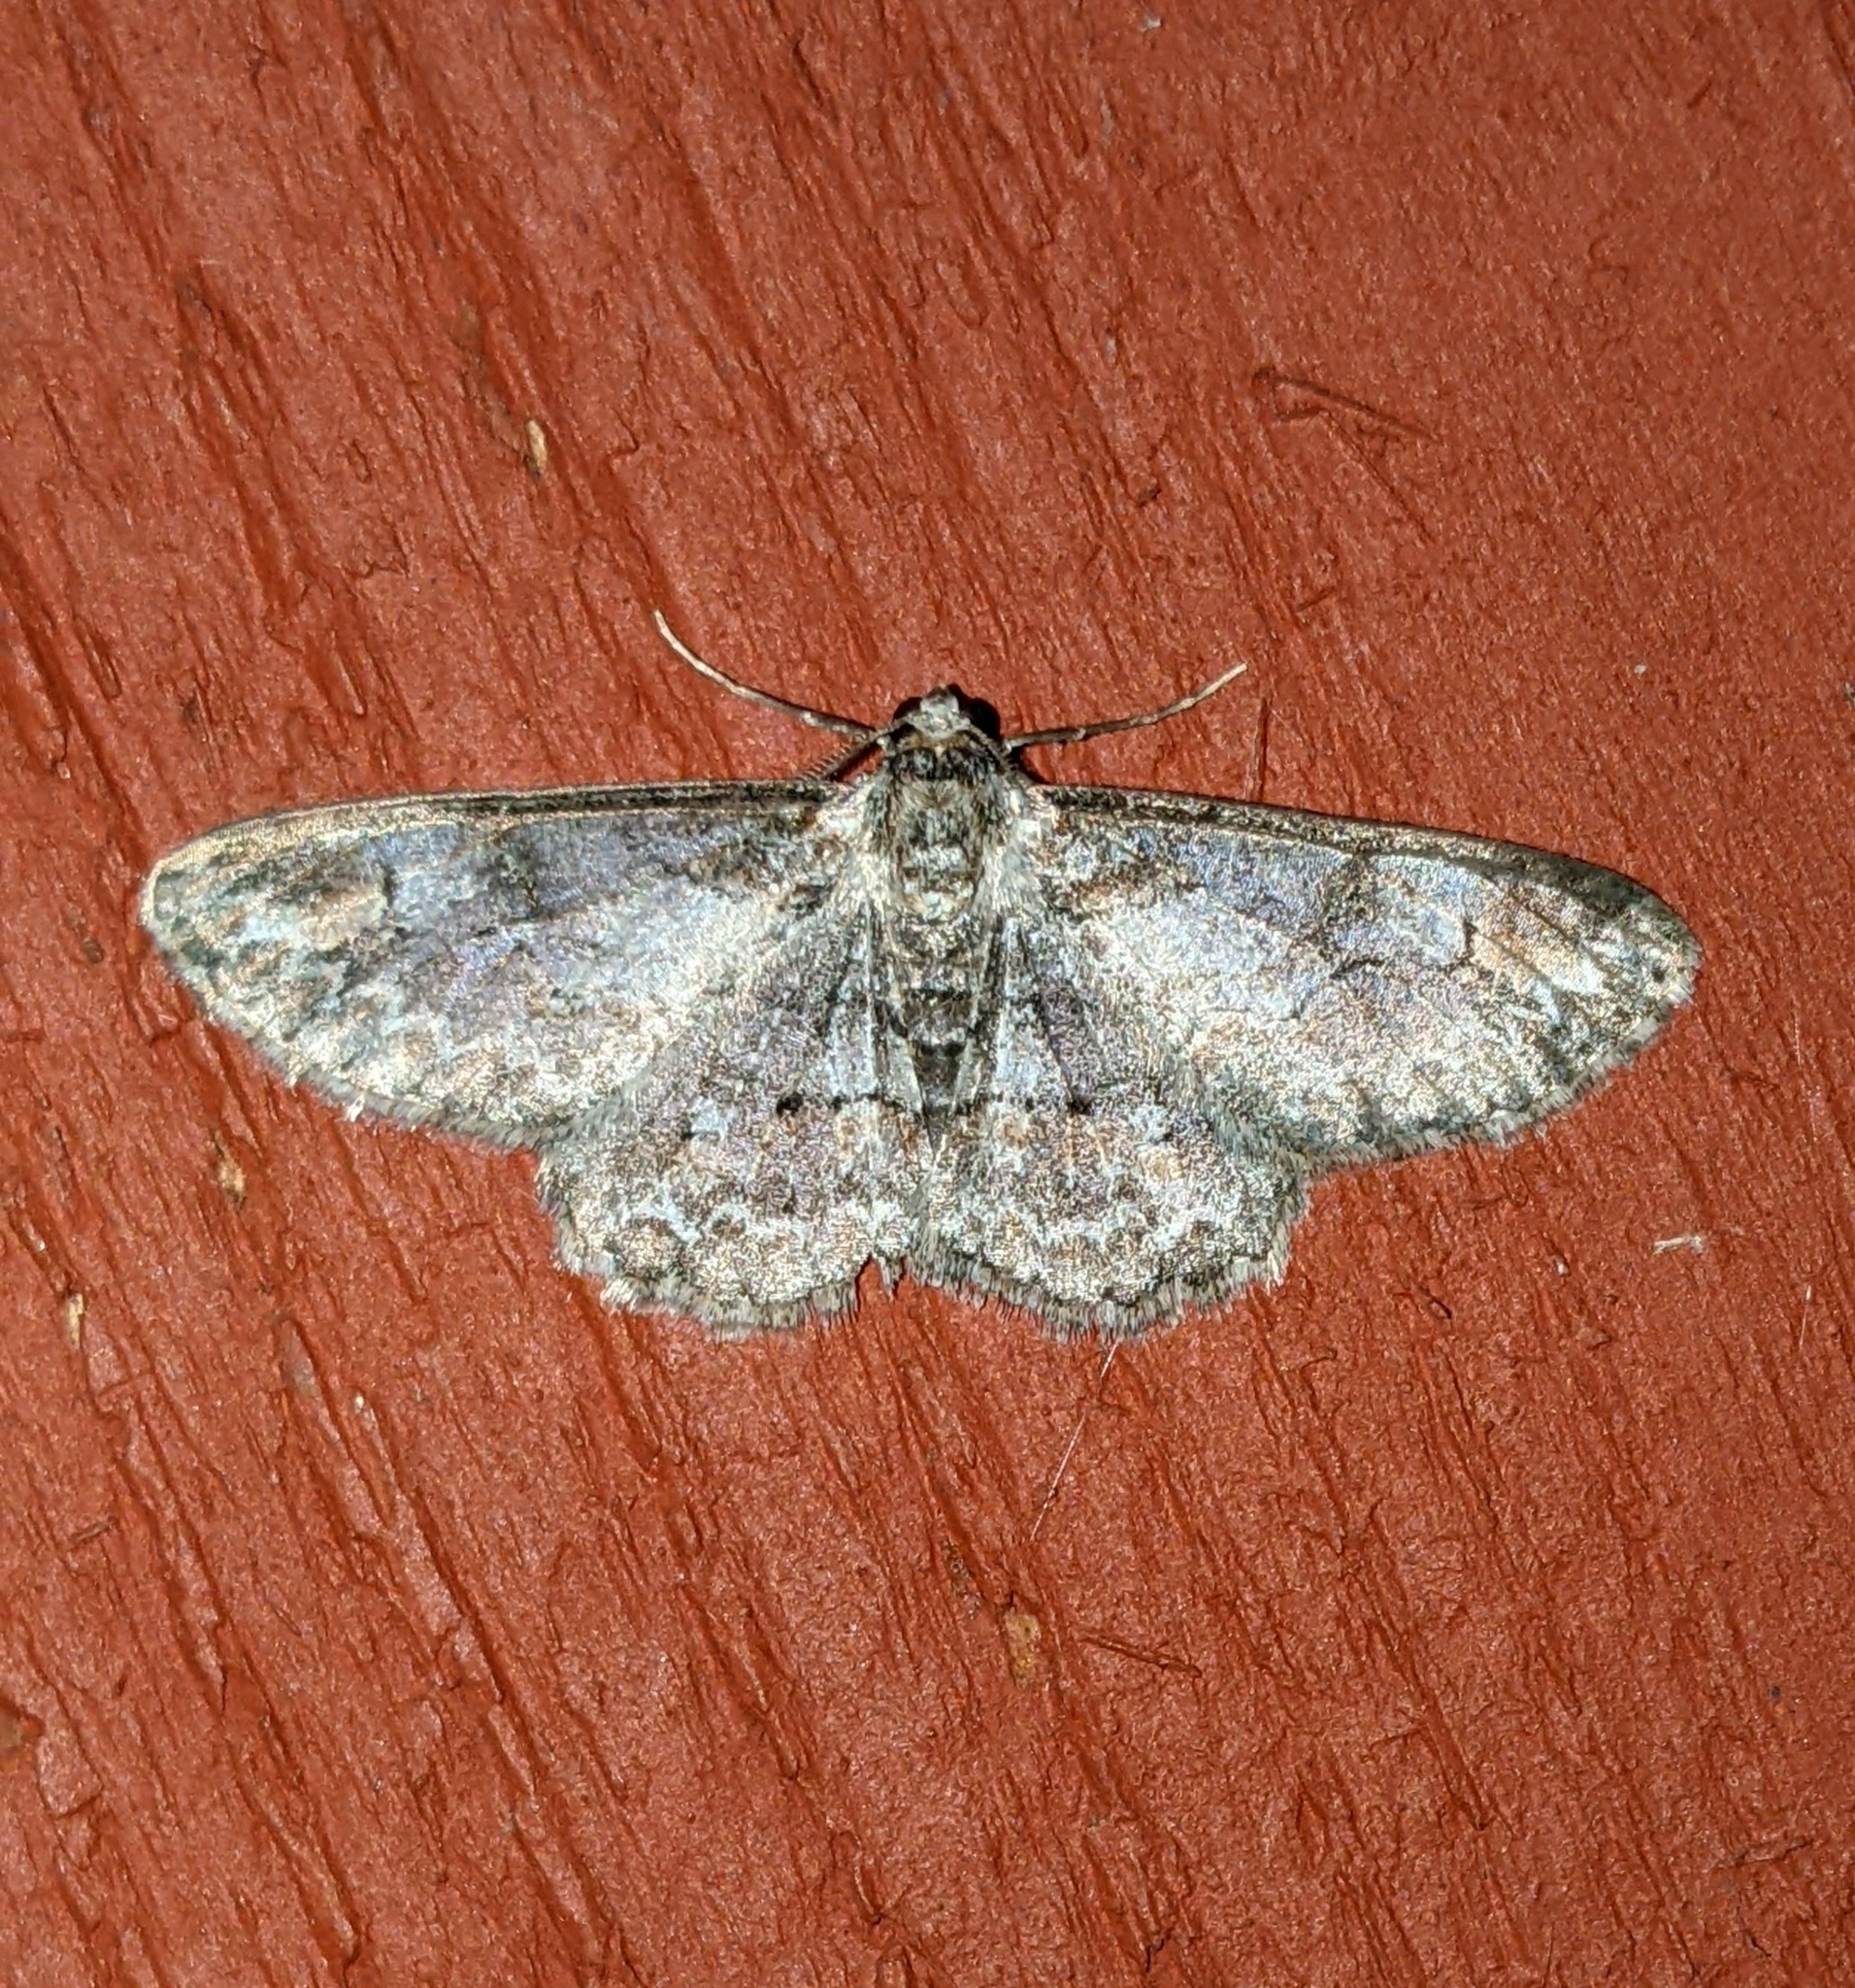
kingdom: Animalia
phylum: Arthropoda
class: Insecta
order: Lepidoptera
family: Geometridae
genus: Iridopsis
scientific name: Iridopsis emasculatum
